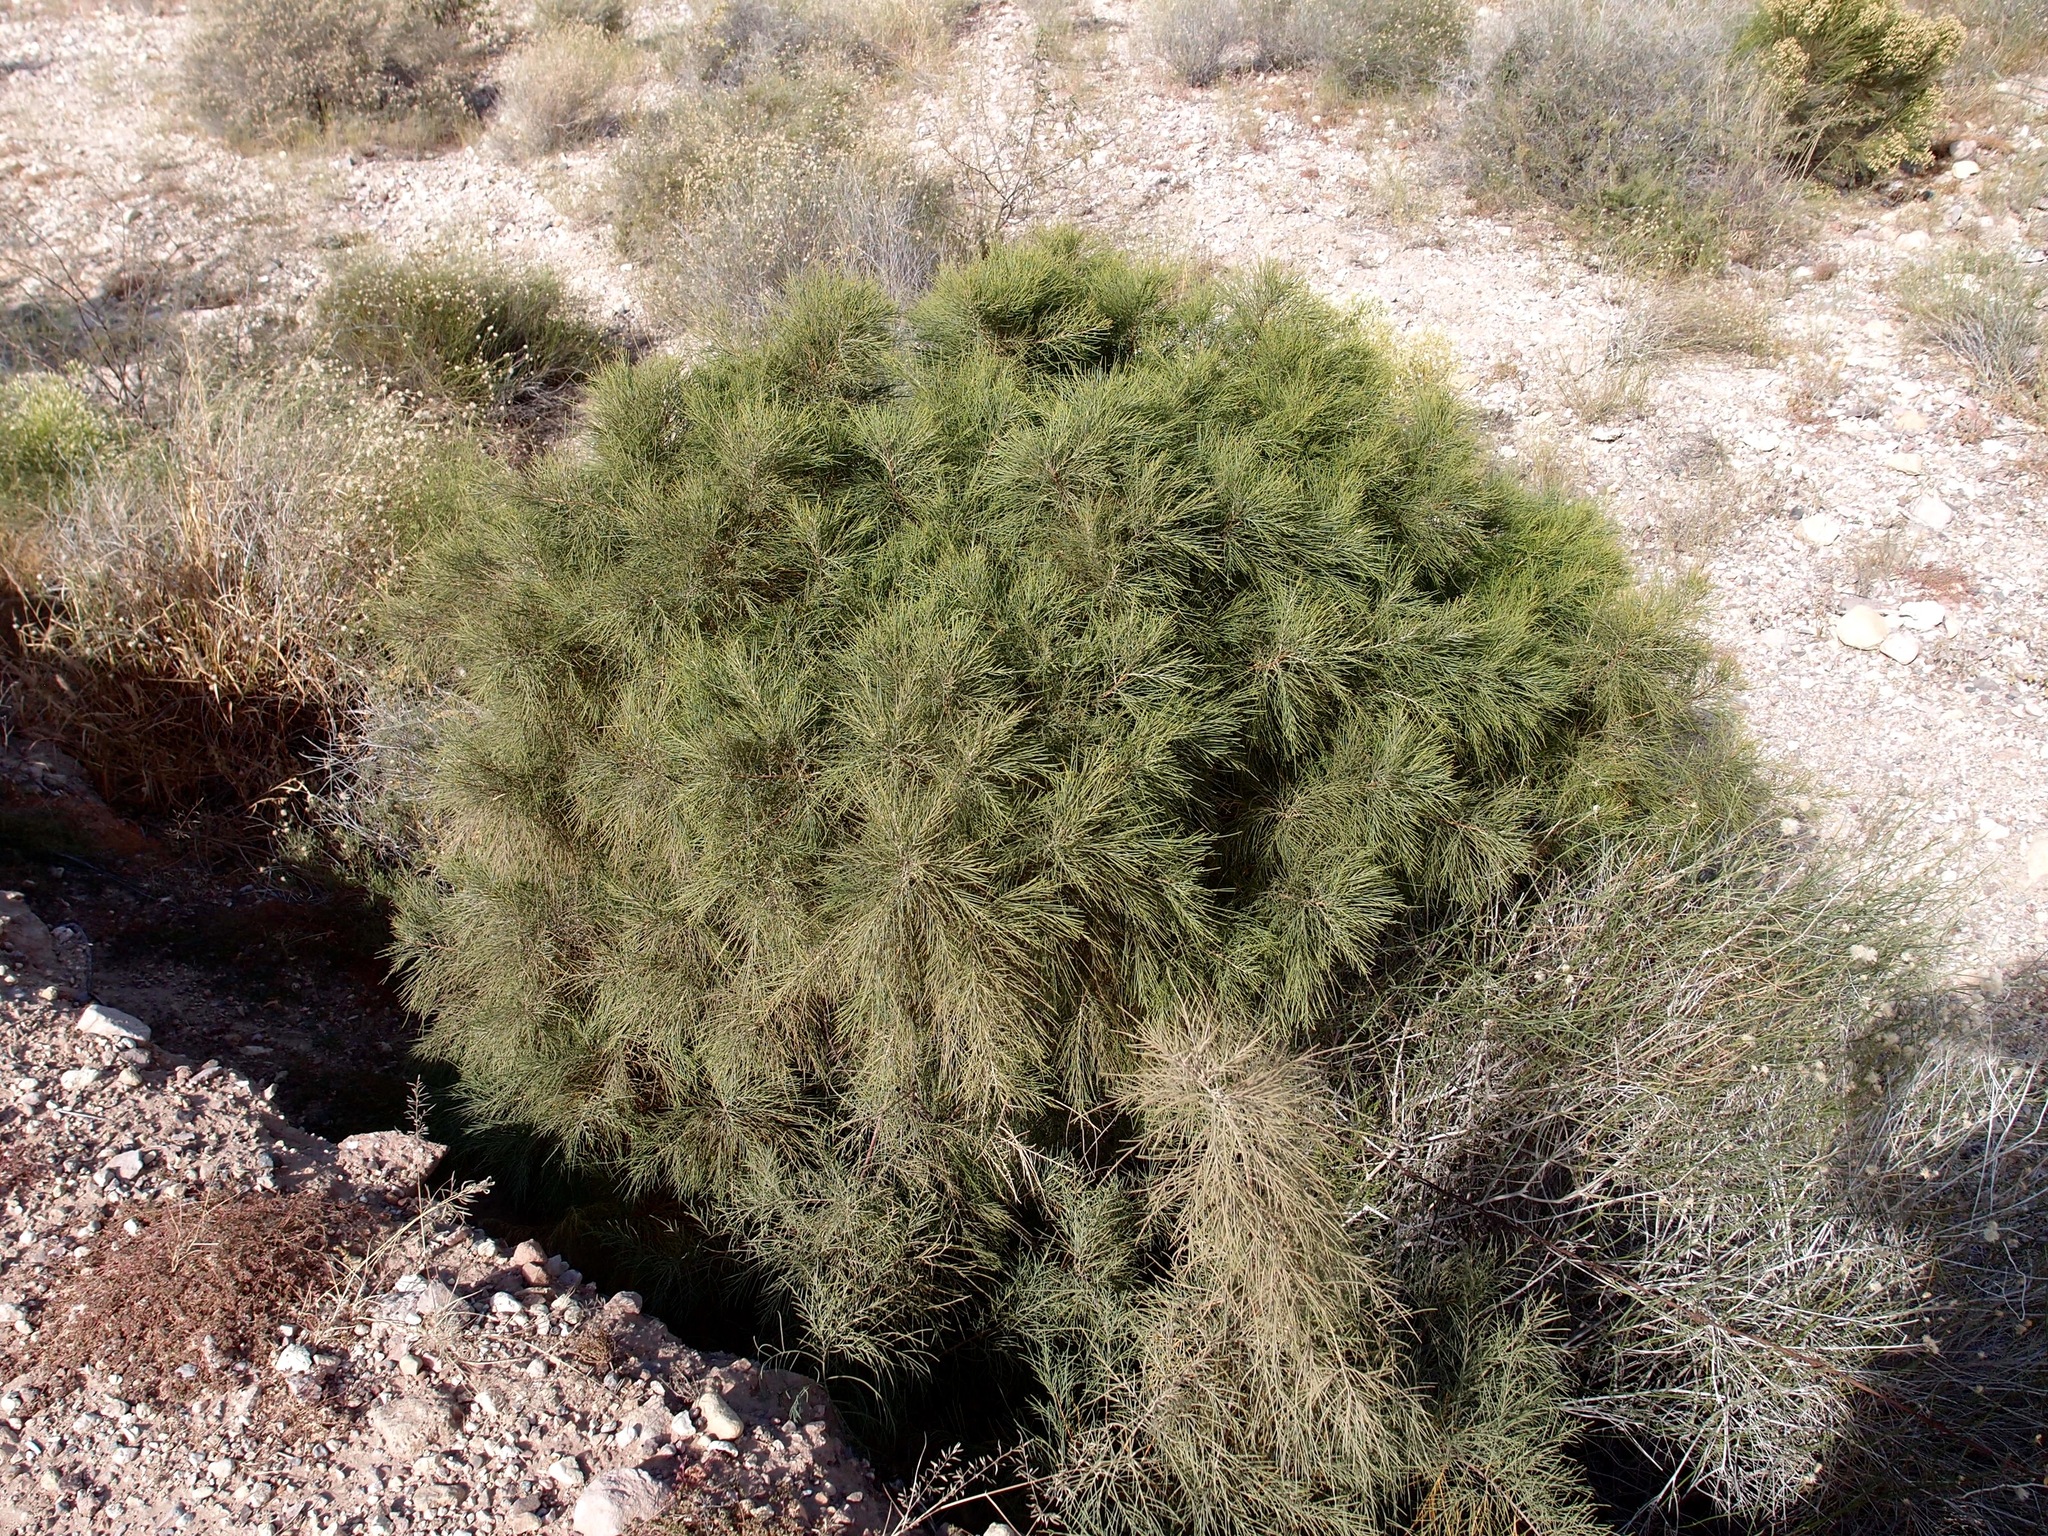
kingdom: Plantae
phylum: Tracheophyta
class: Magnoliopsida
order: Caryophyllales
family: Tamaricaceae
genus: Tamarix
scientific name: Tamarix aphylla
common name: Athel tamarisk
